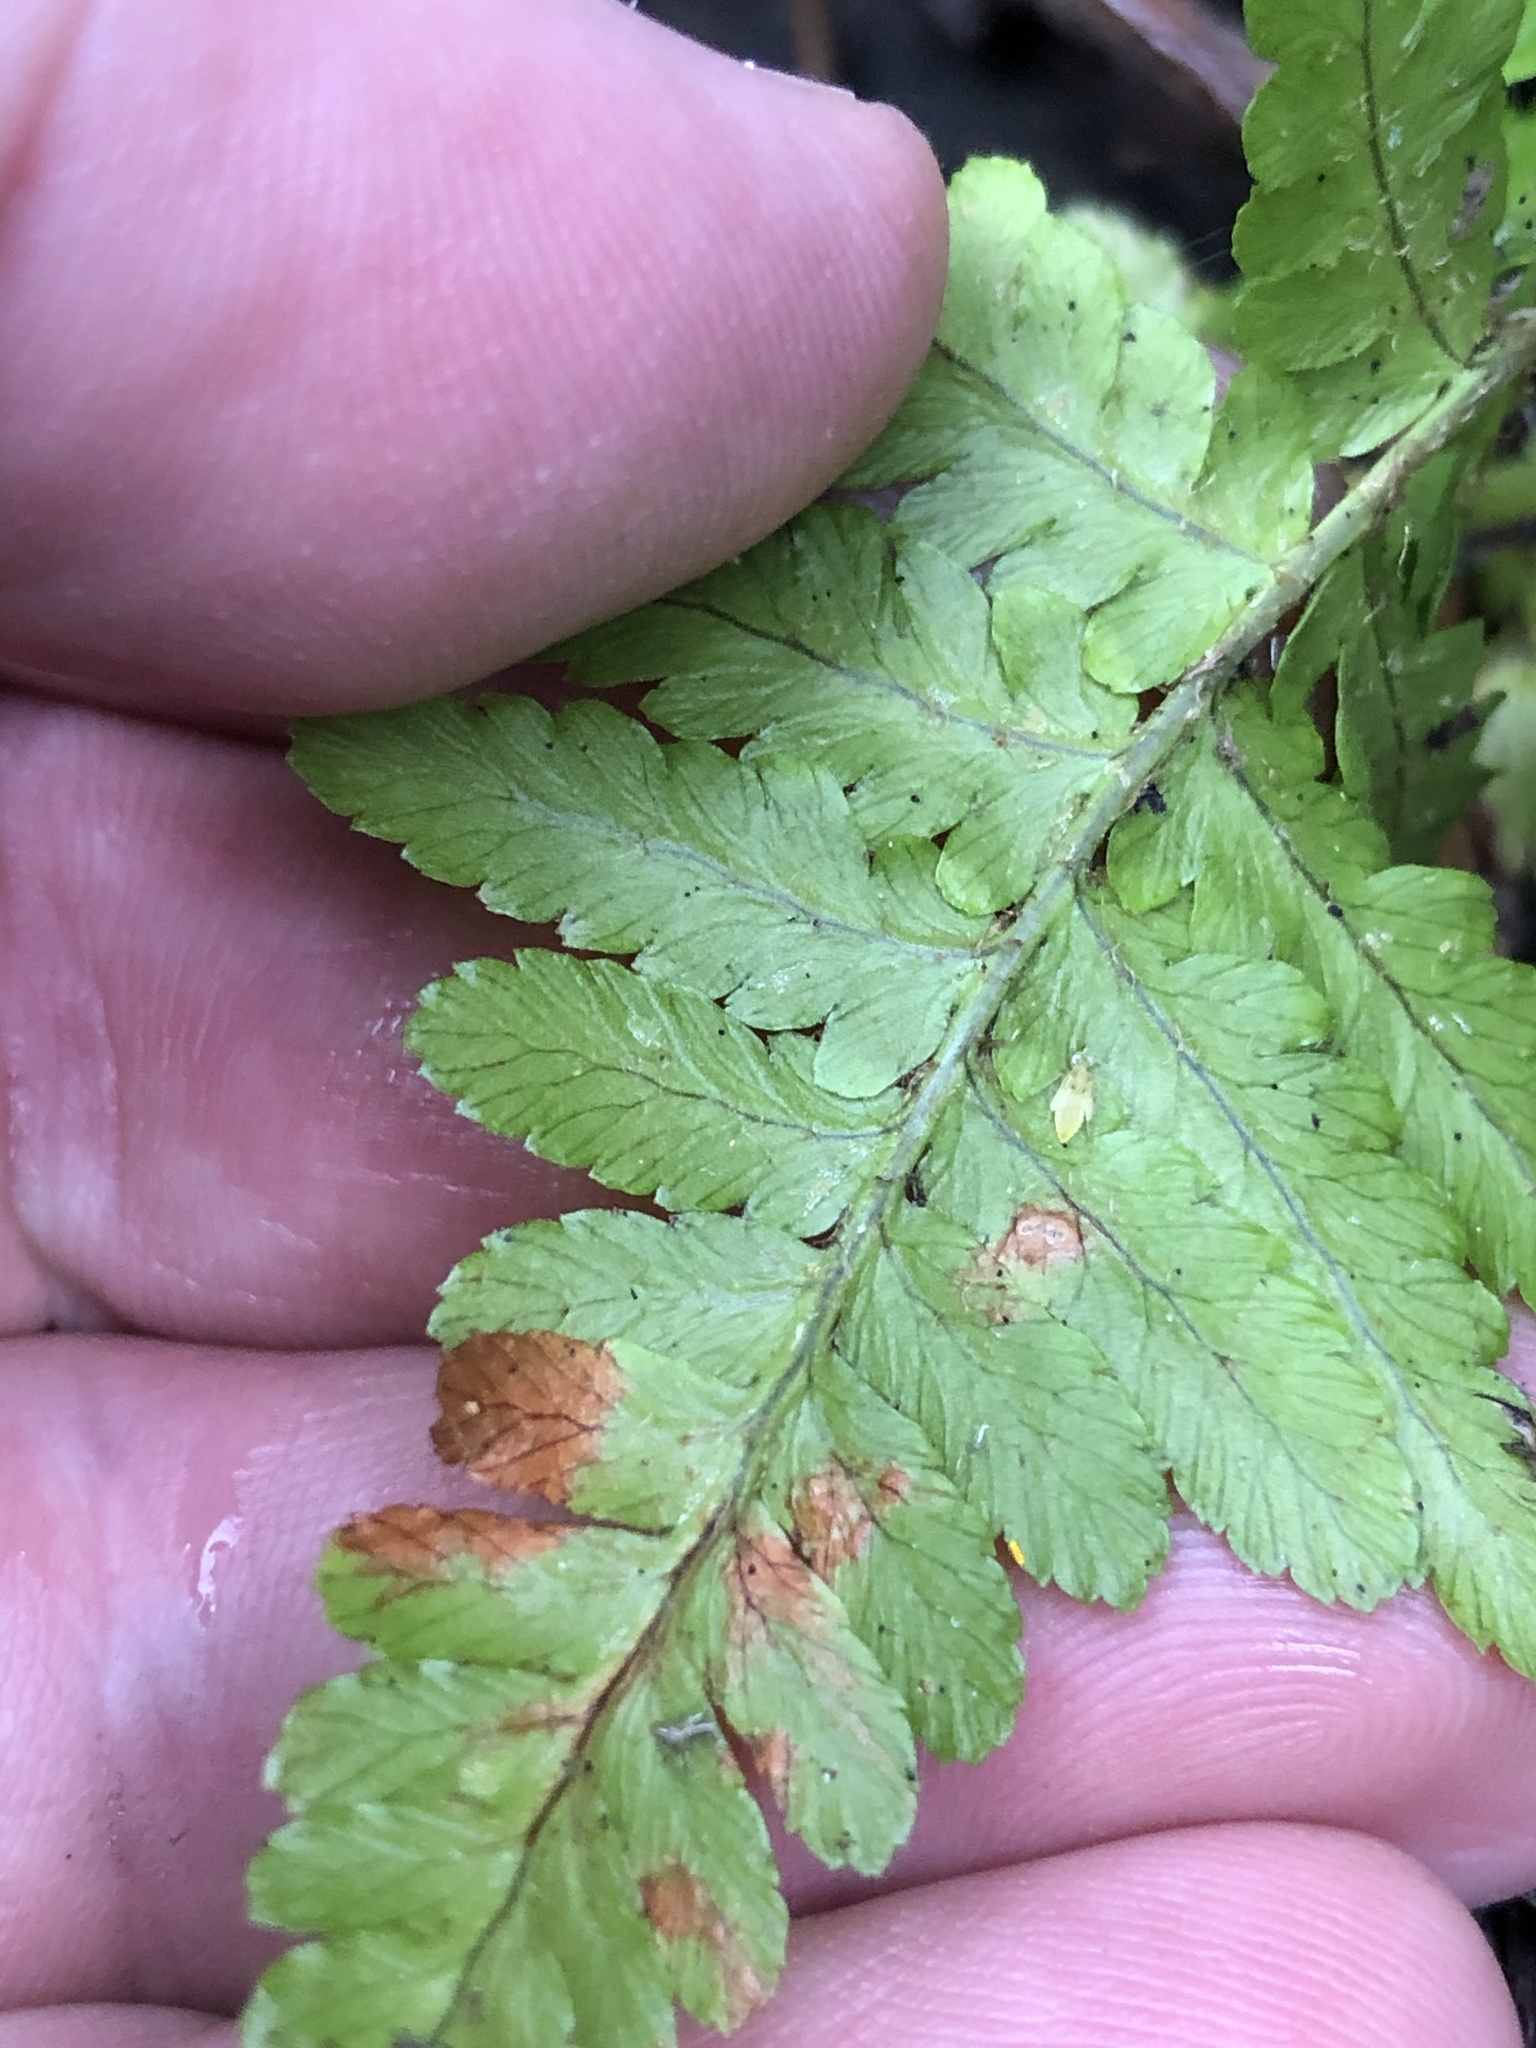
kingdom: Plantae
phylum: Tracheophyta
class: Polypodiopsida
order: Polypodiales
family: Dryopteridaceae
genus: Dryopteris
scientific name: Dryopteris filix-mas
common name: Male fern
